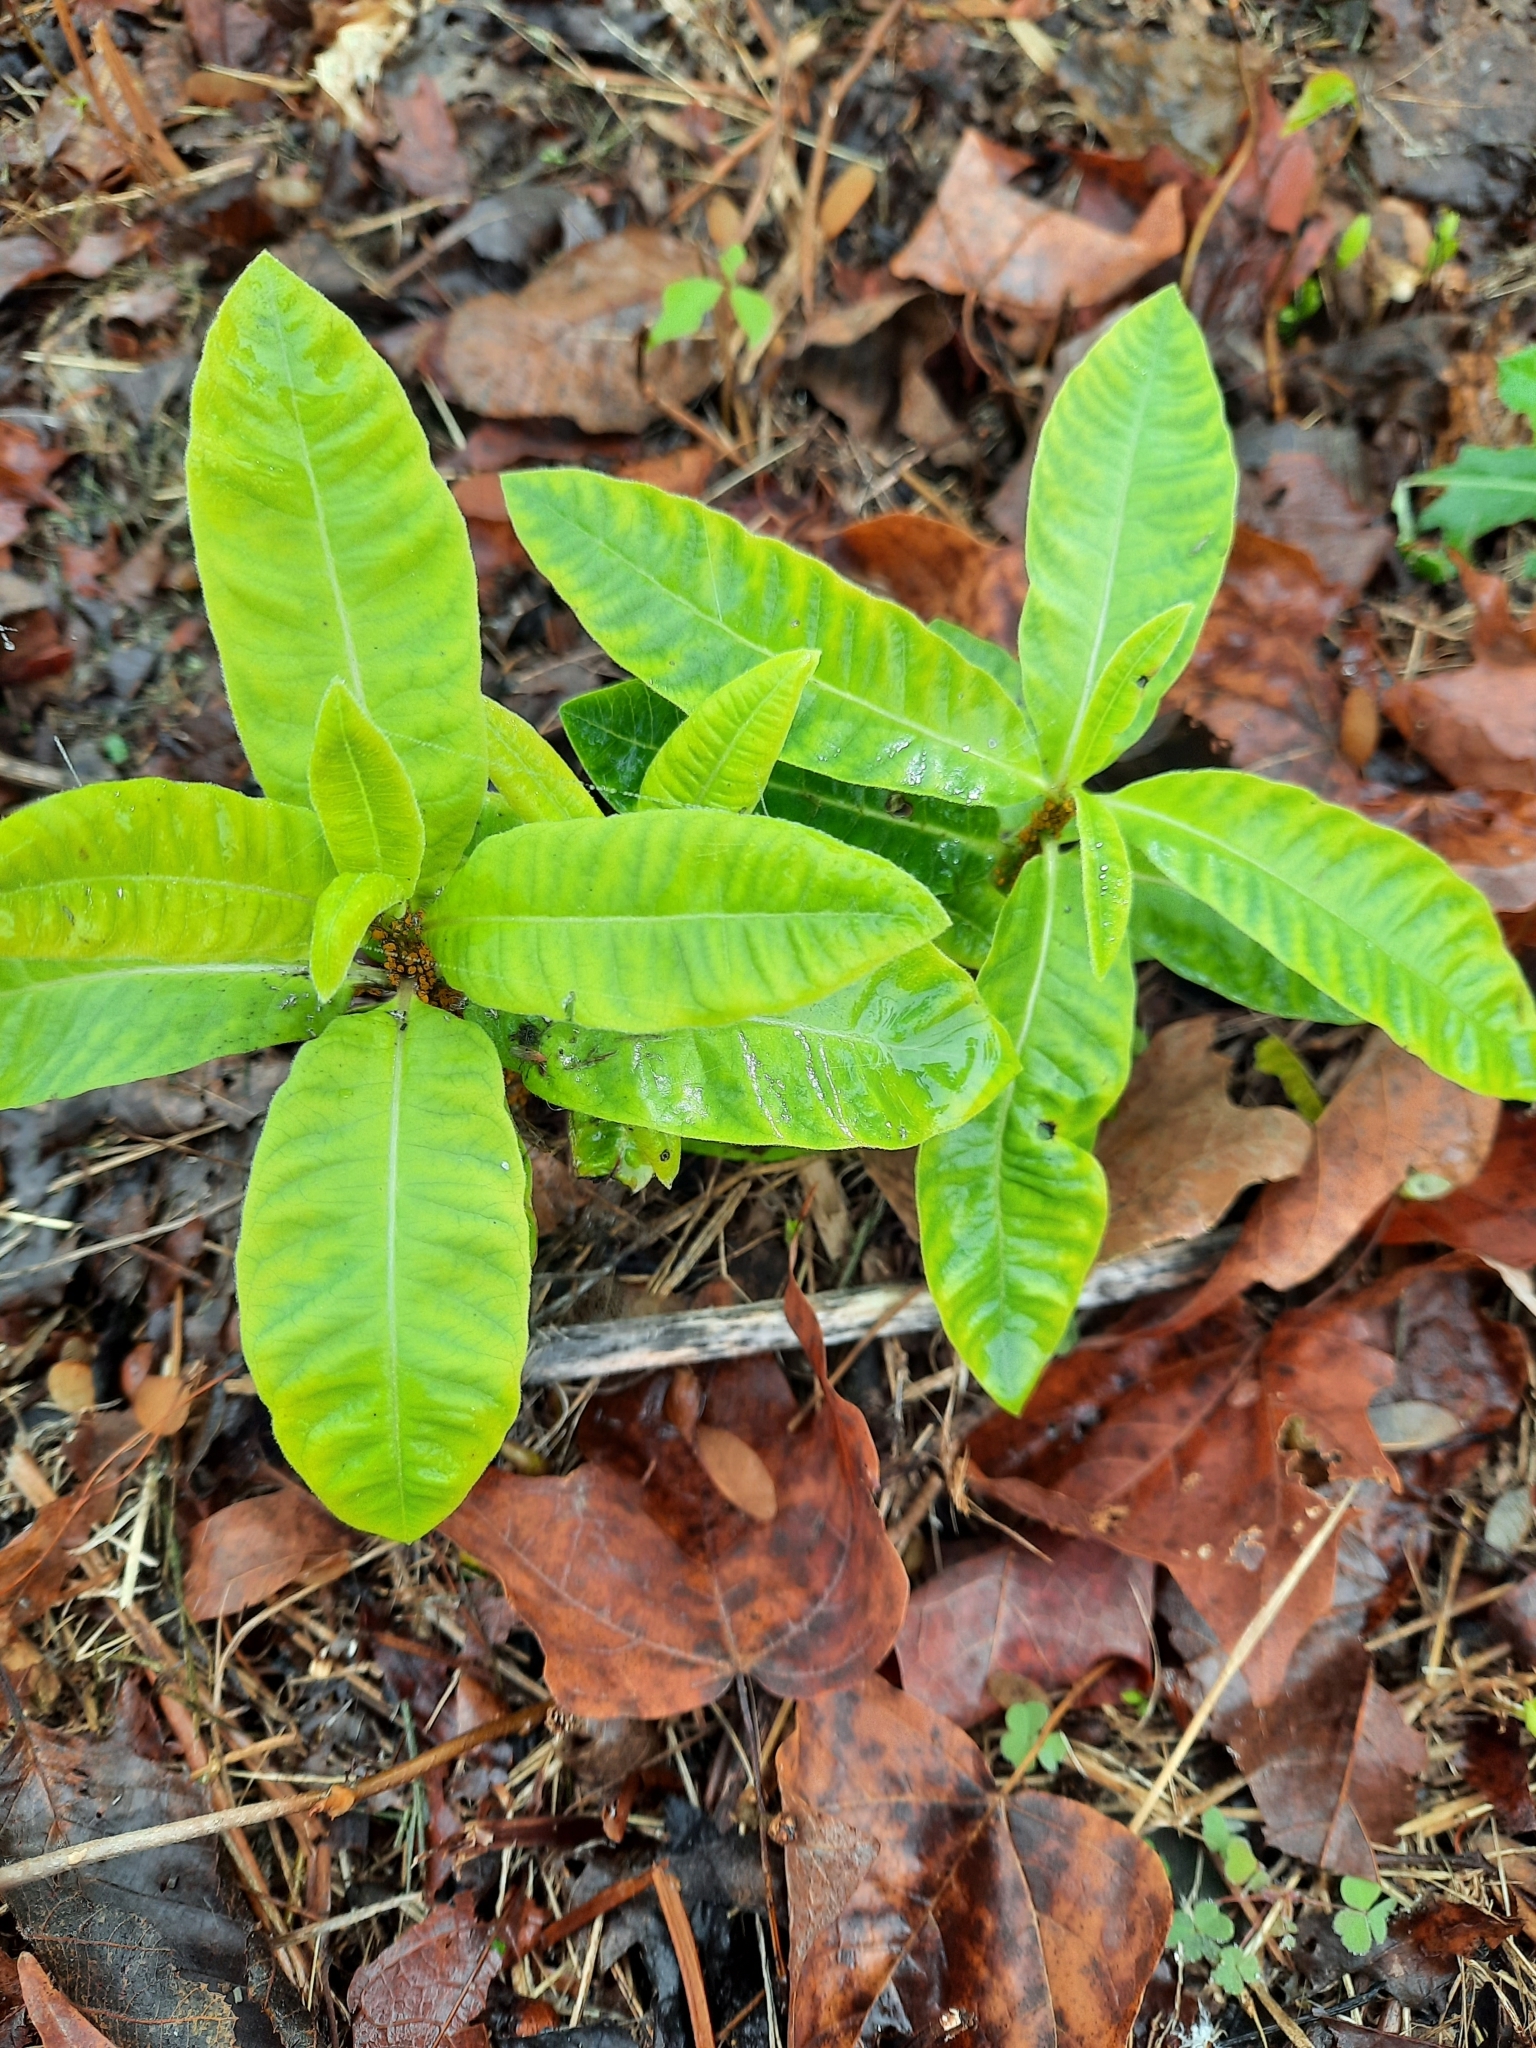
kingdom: Plantae
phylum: Tracheophyta
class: Magnoliopsida
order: Gentianales
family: Apocynaceae
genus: Asclepias
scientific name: Asclepias syriaca
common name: Common milkweed
